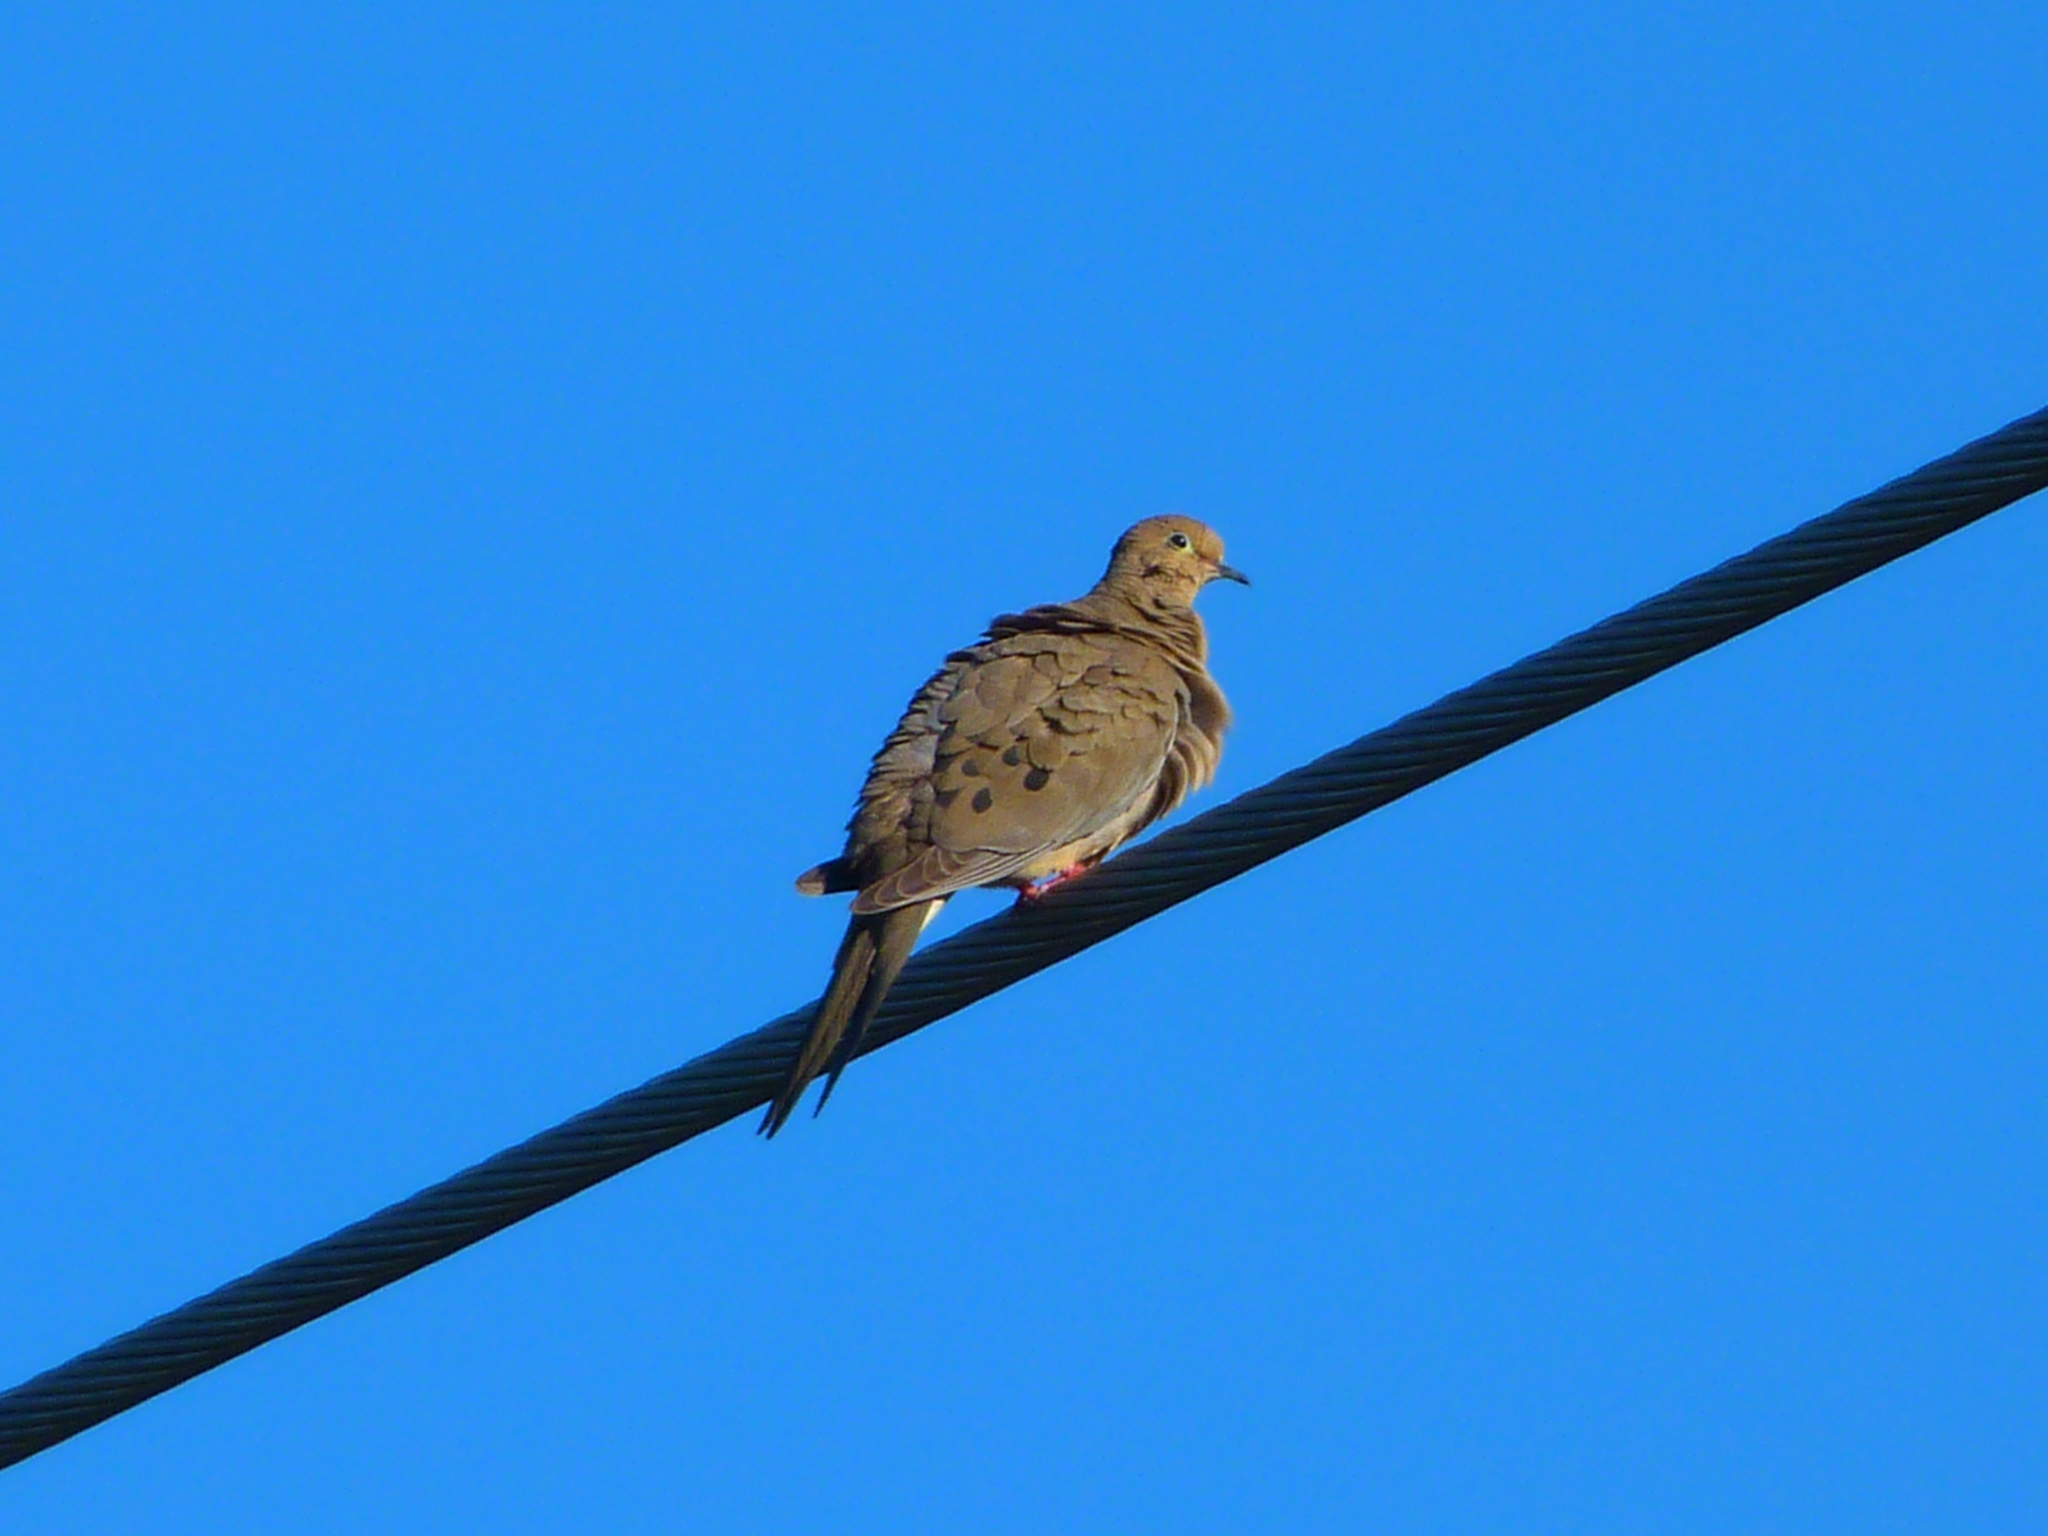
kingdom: Animalia
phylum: Chordata
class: Aves
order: Columbiformes
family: Columbidae
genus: Zenaida
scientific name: Zenaida macroura
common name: Mourning dove
